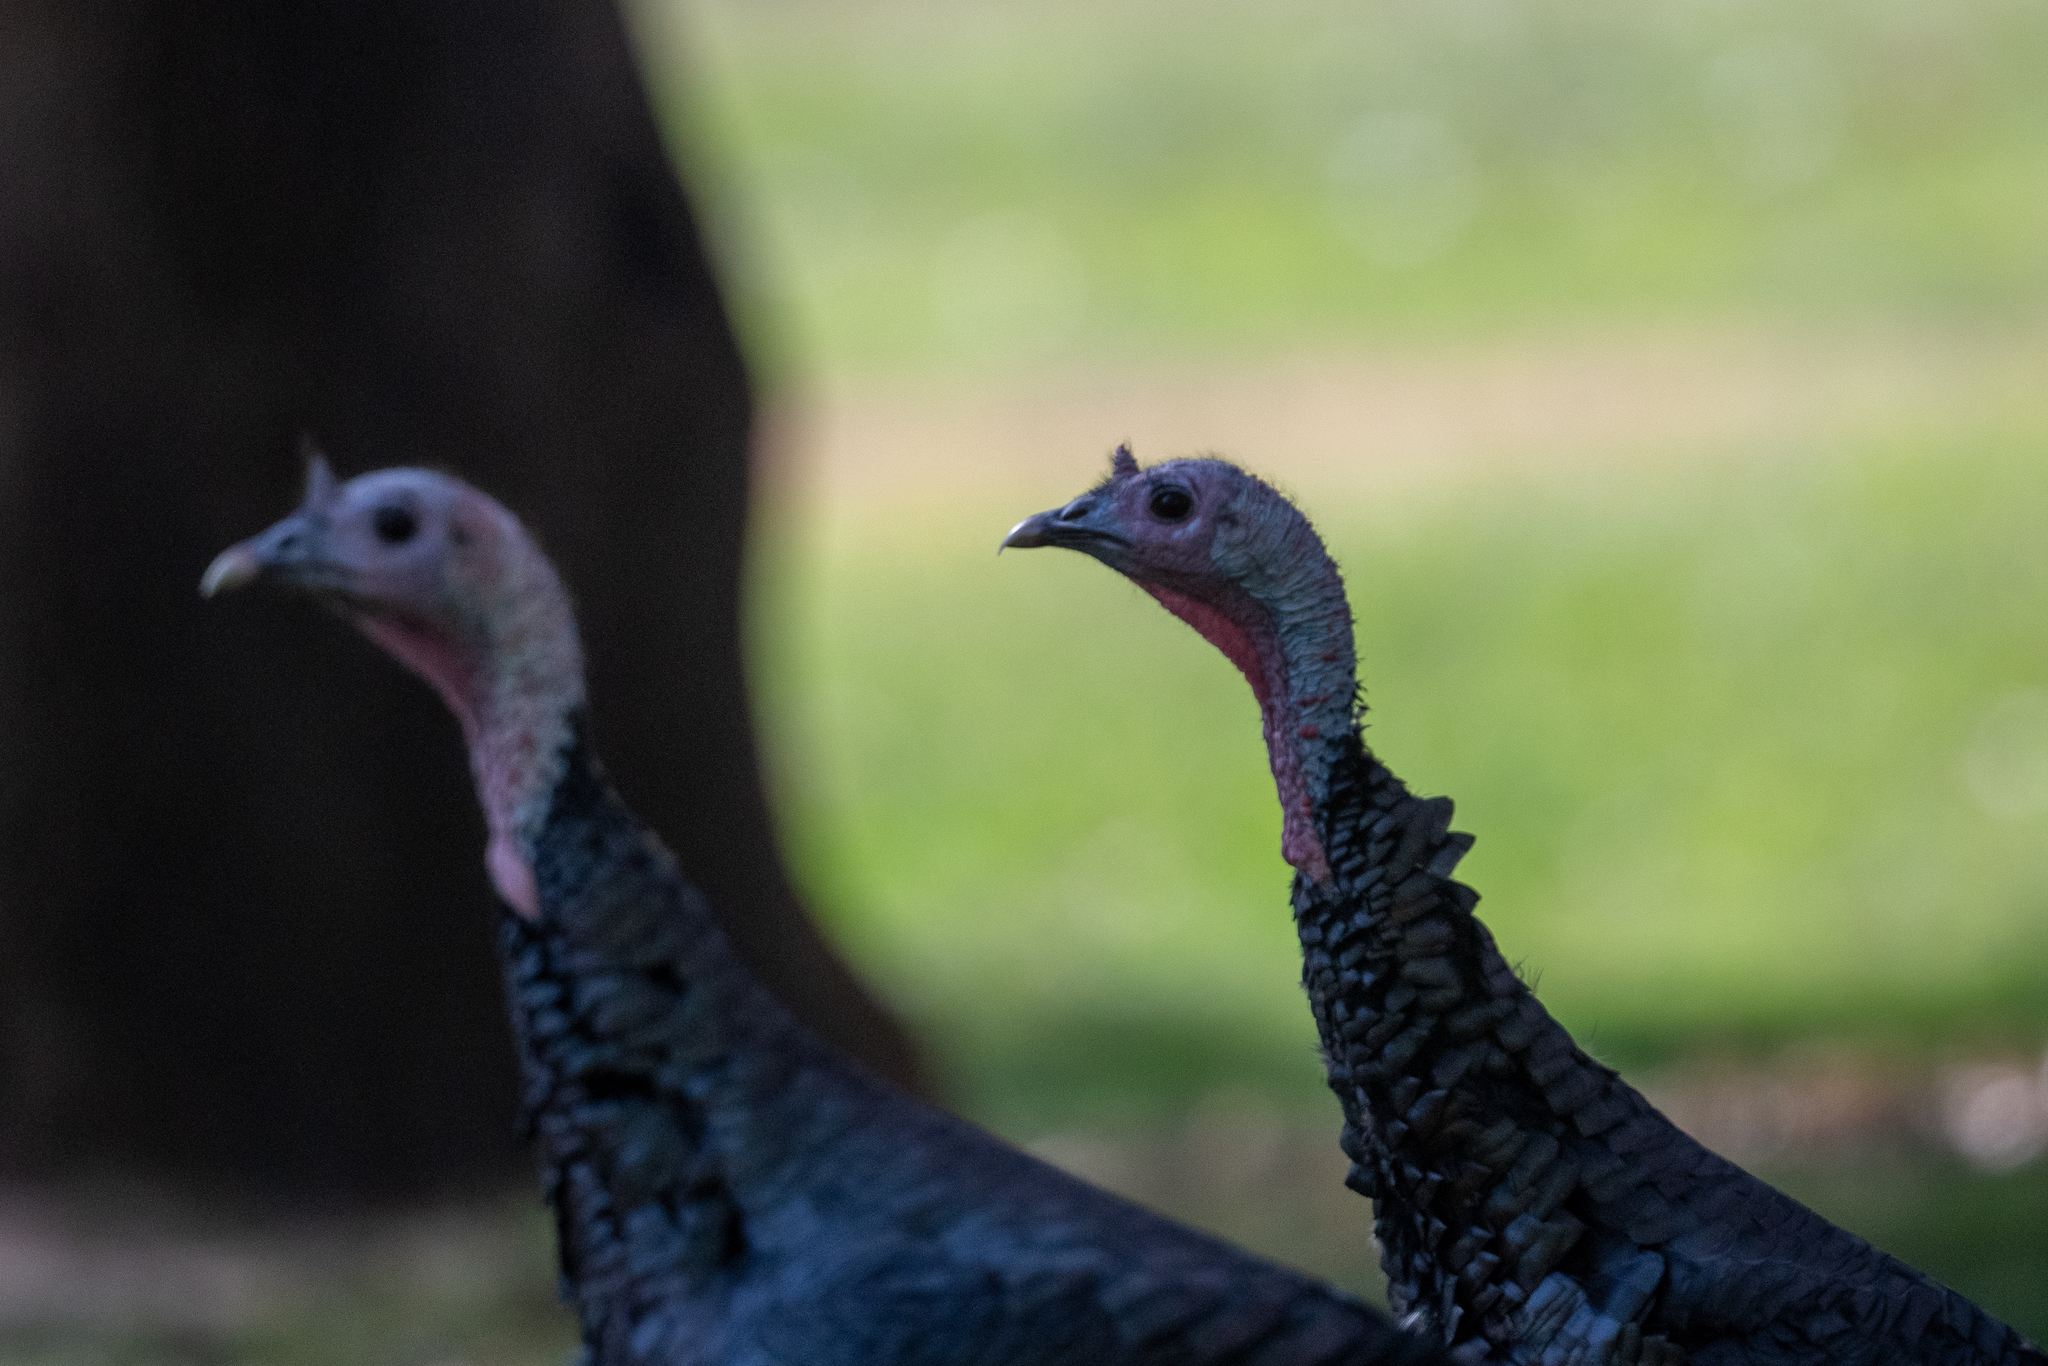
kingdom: Animalia
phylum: Chordata
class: Aves
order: Galliformes
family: Phasianidae
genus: Meleagris
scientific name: Meleagris gallopavo
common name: Wild turkey
